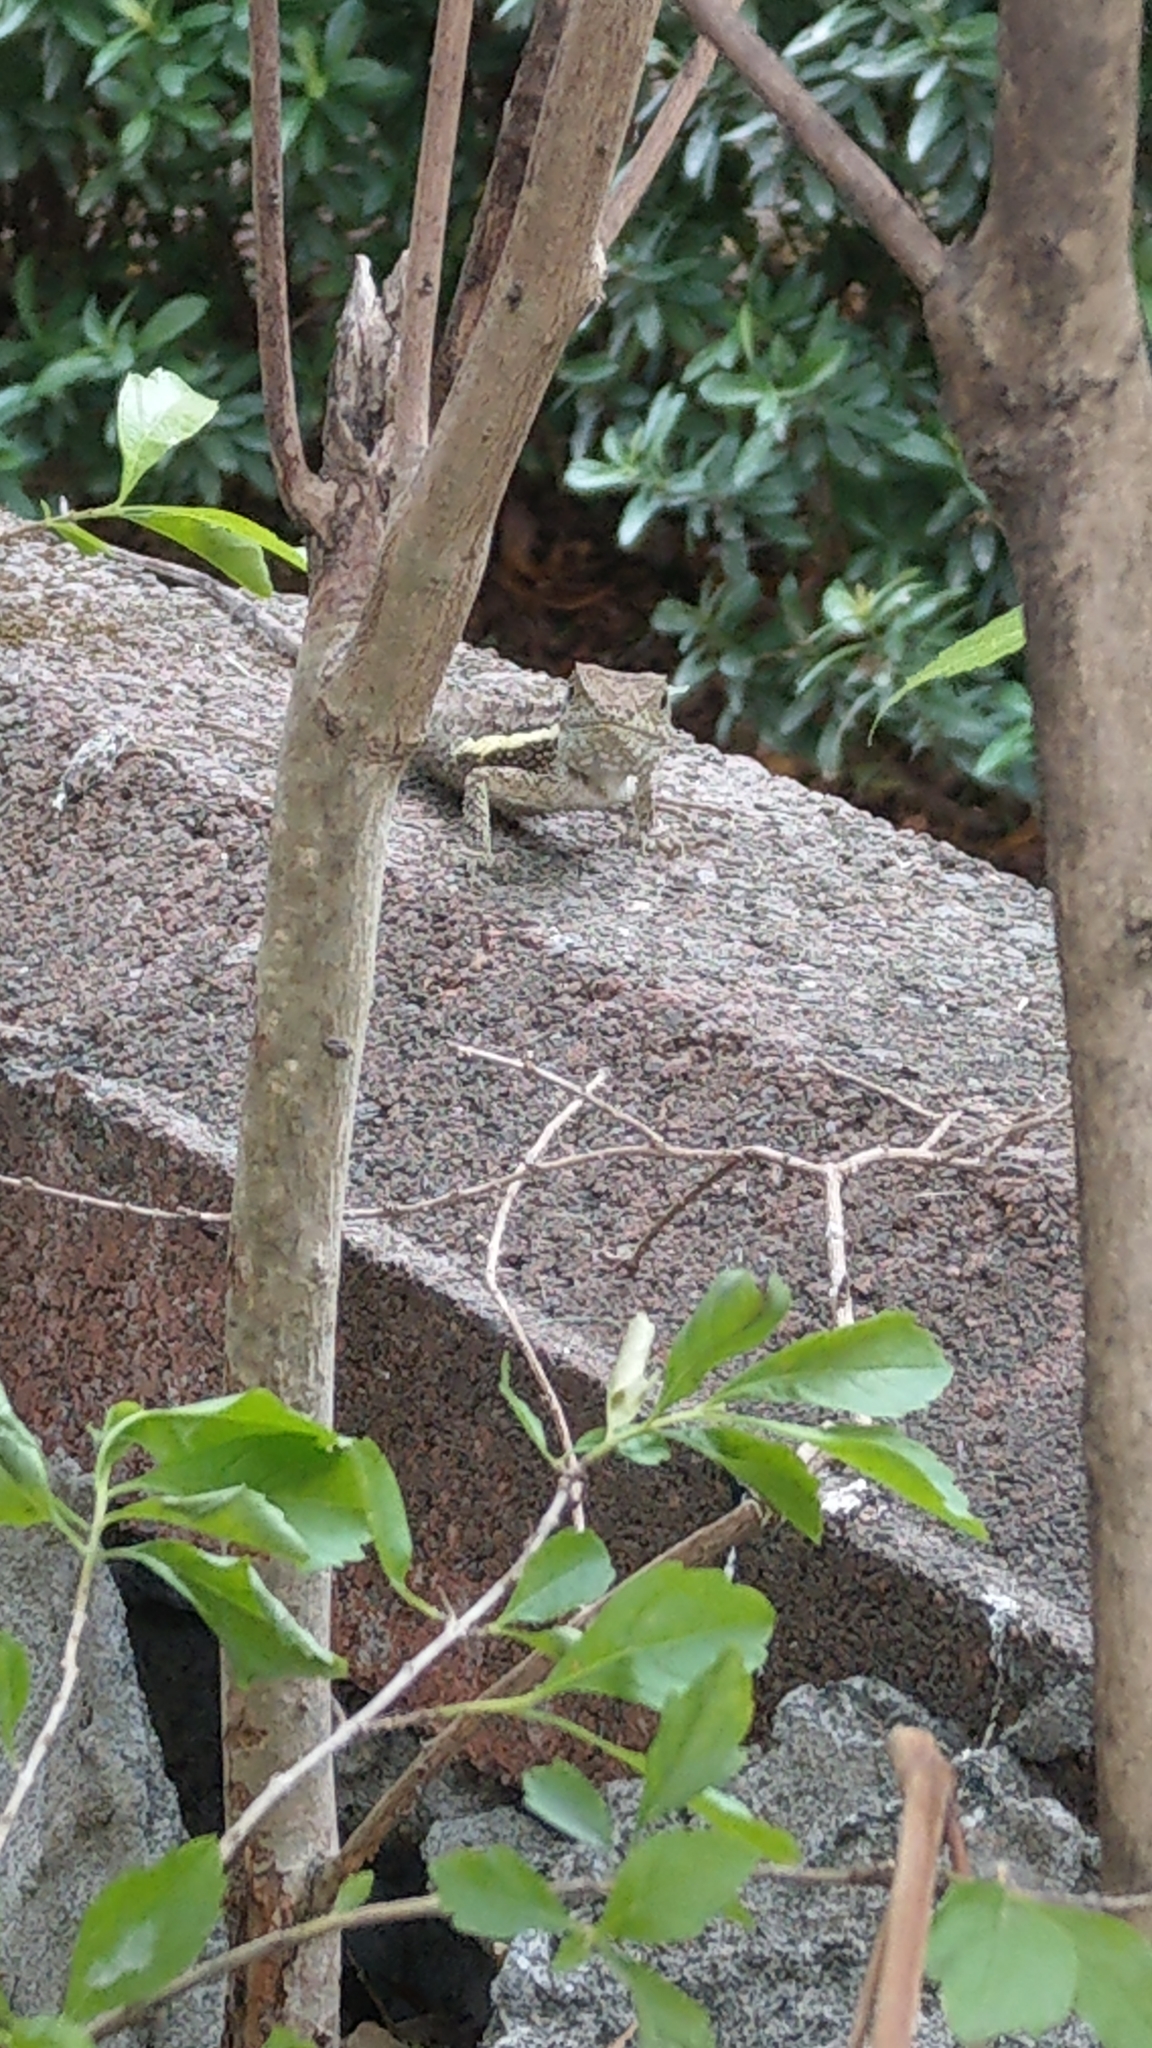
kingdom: Animalia
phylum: Chordata
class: Squamata
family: Agamidae
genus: Diploderma
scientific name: Diploderma swinhonis
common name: Taiwan japalure
